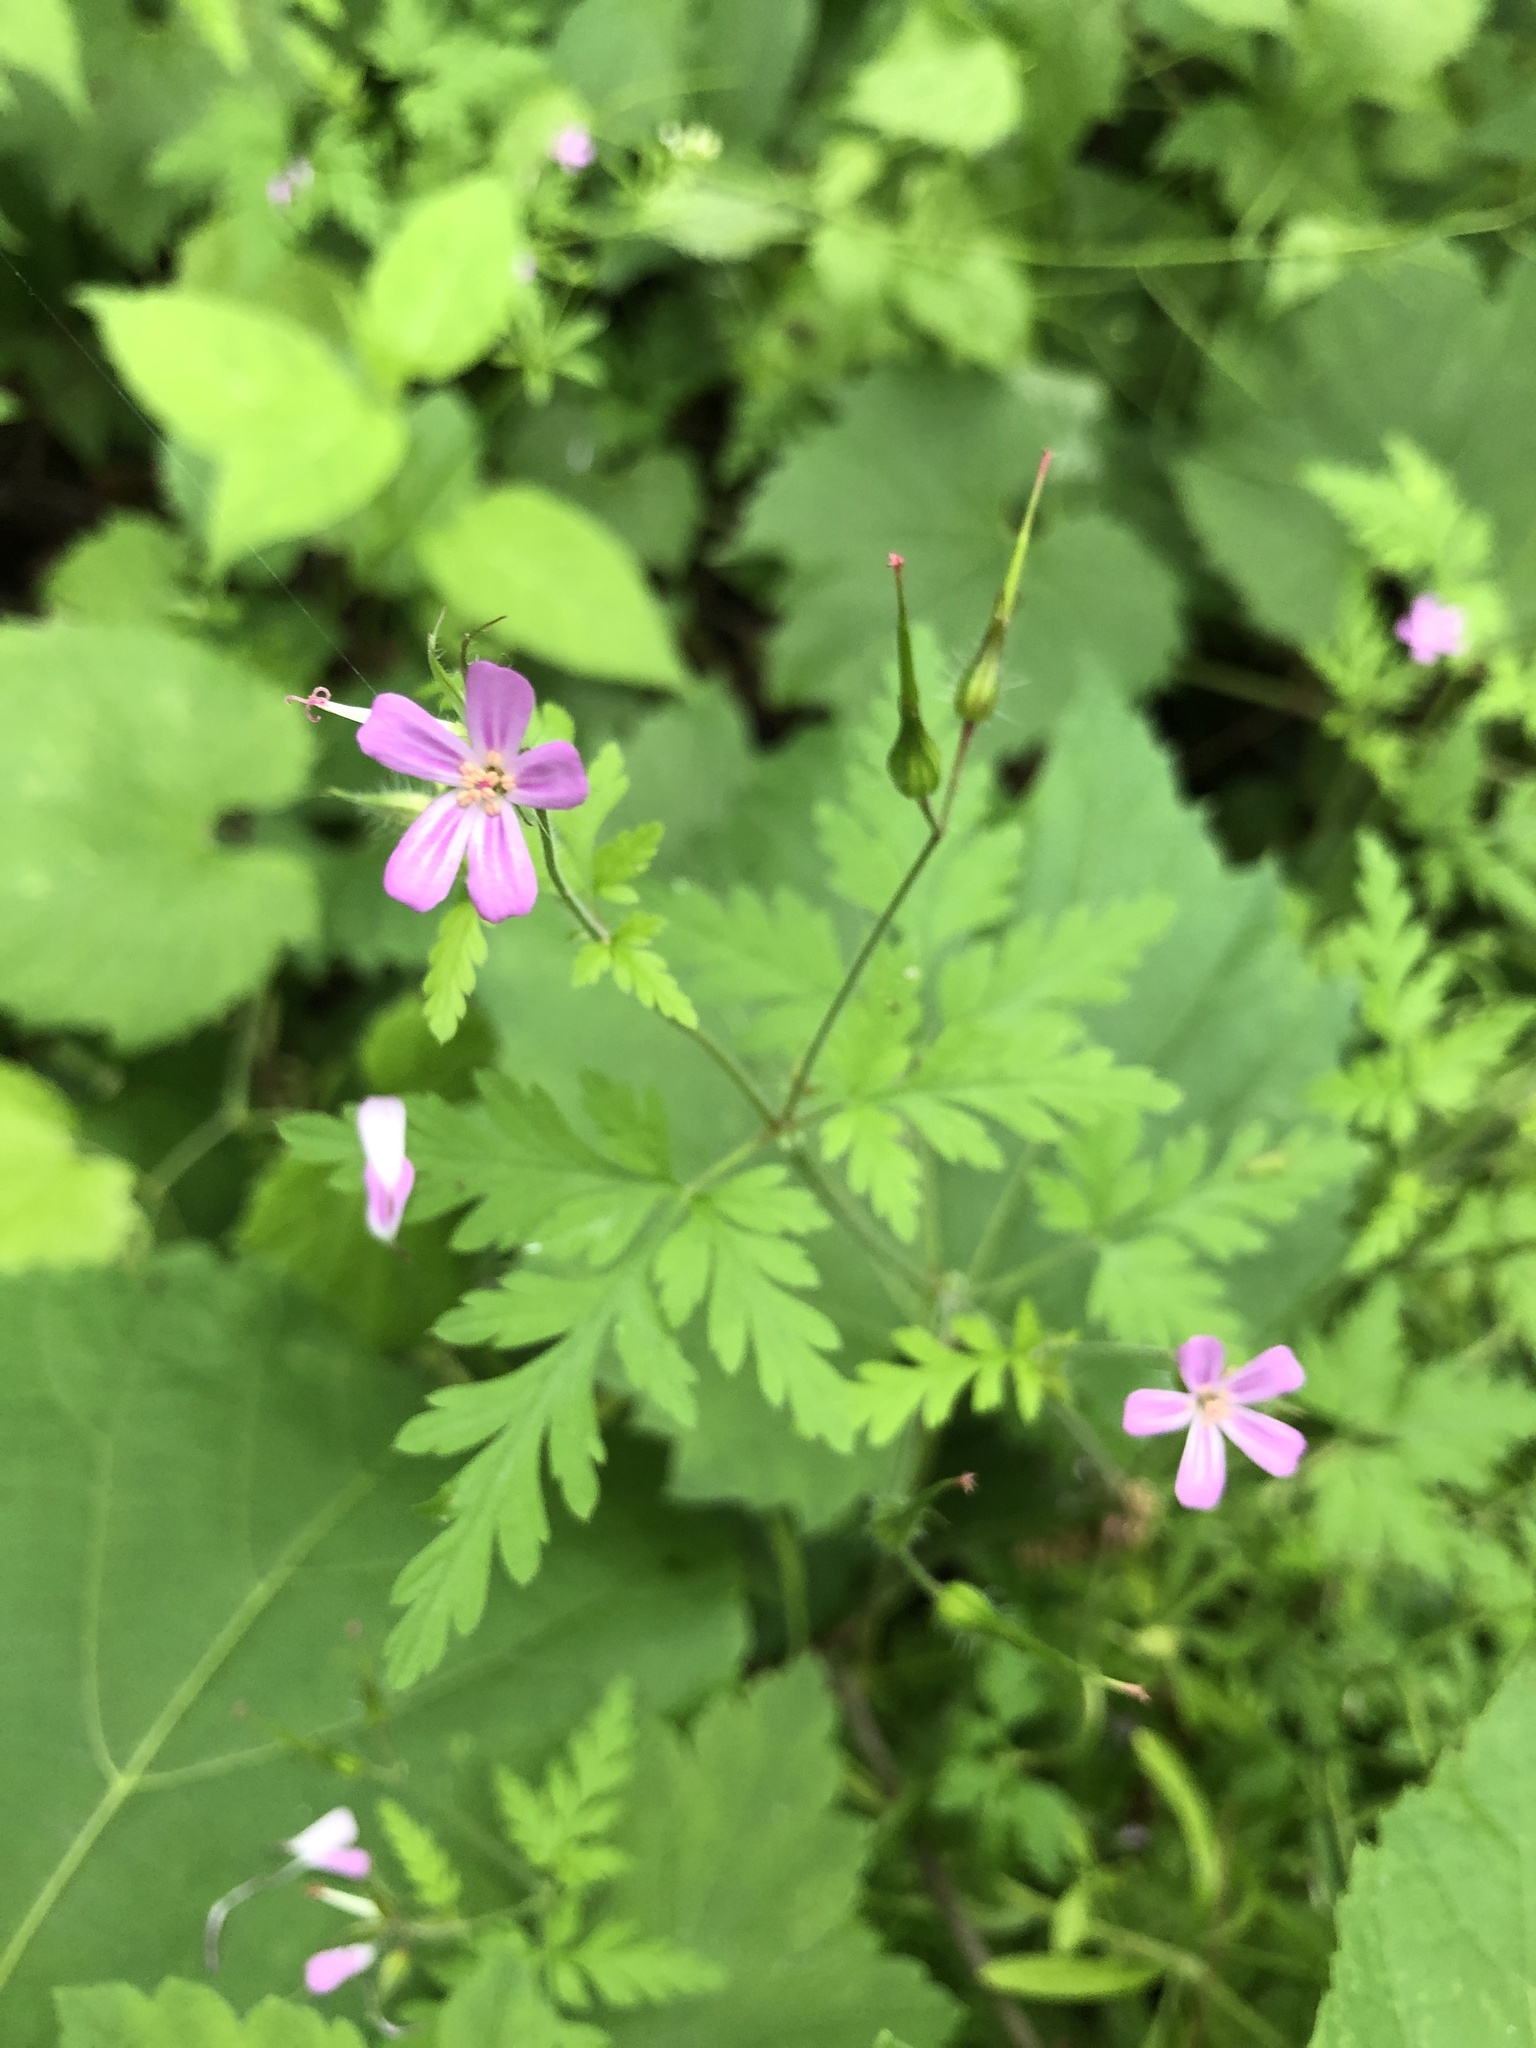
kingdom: Plantae
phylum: Tracheophyta
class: Magnoliopsida
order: Geraniales
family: Geraniaceae
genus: Geranium
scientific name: Geranium robertianum
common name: Herb-robert
